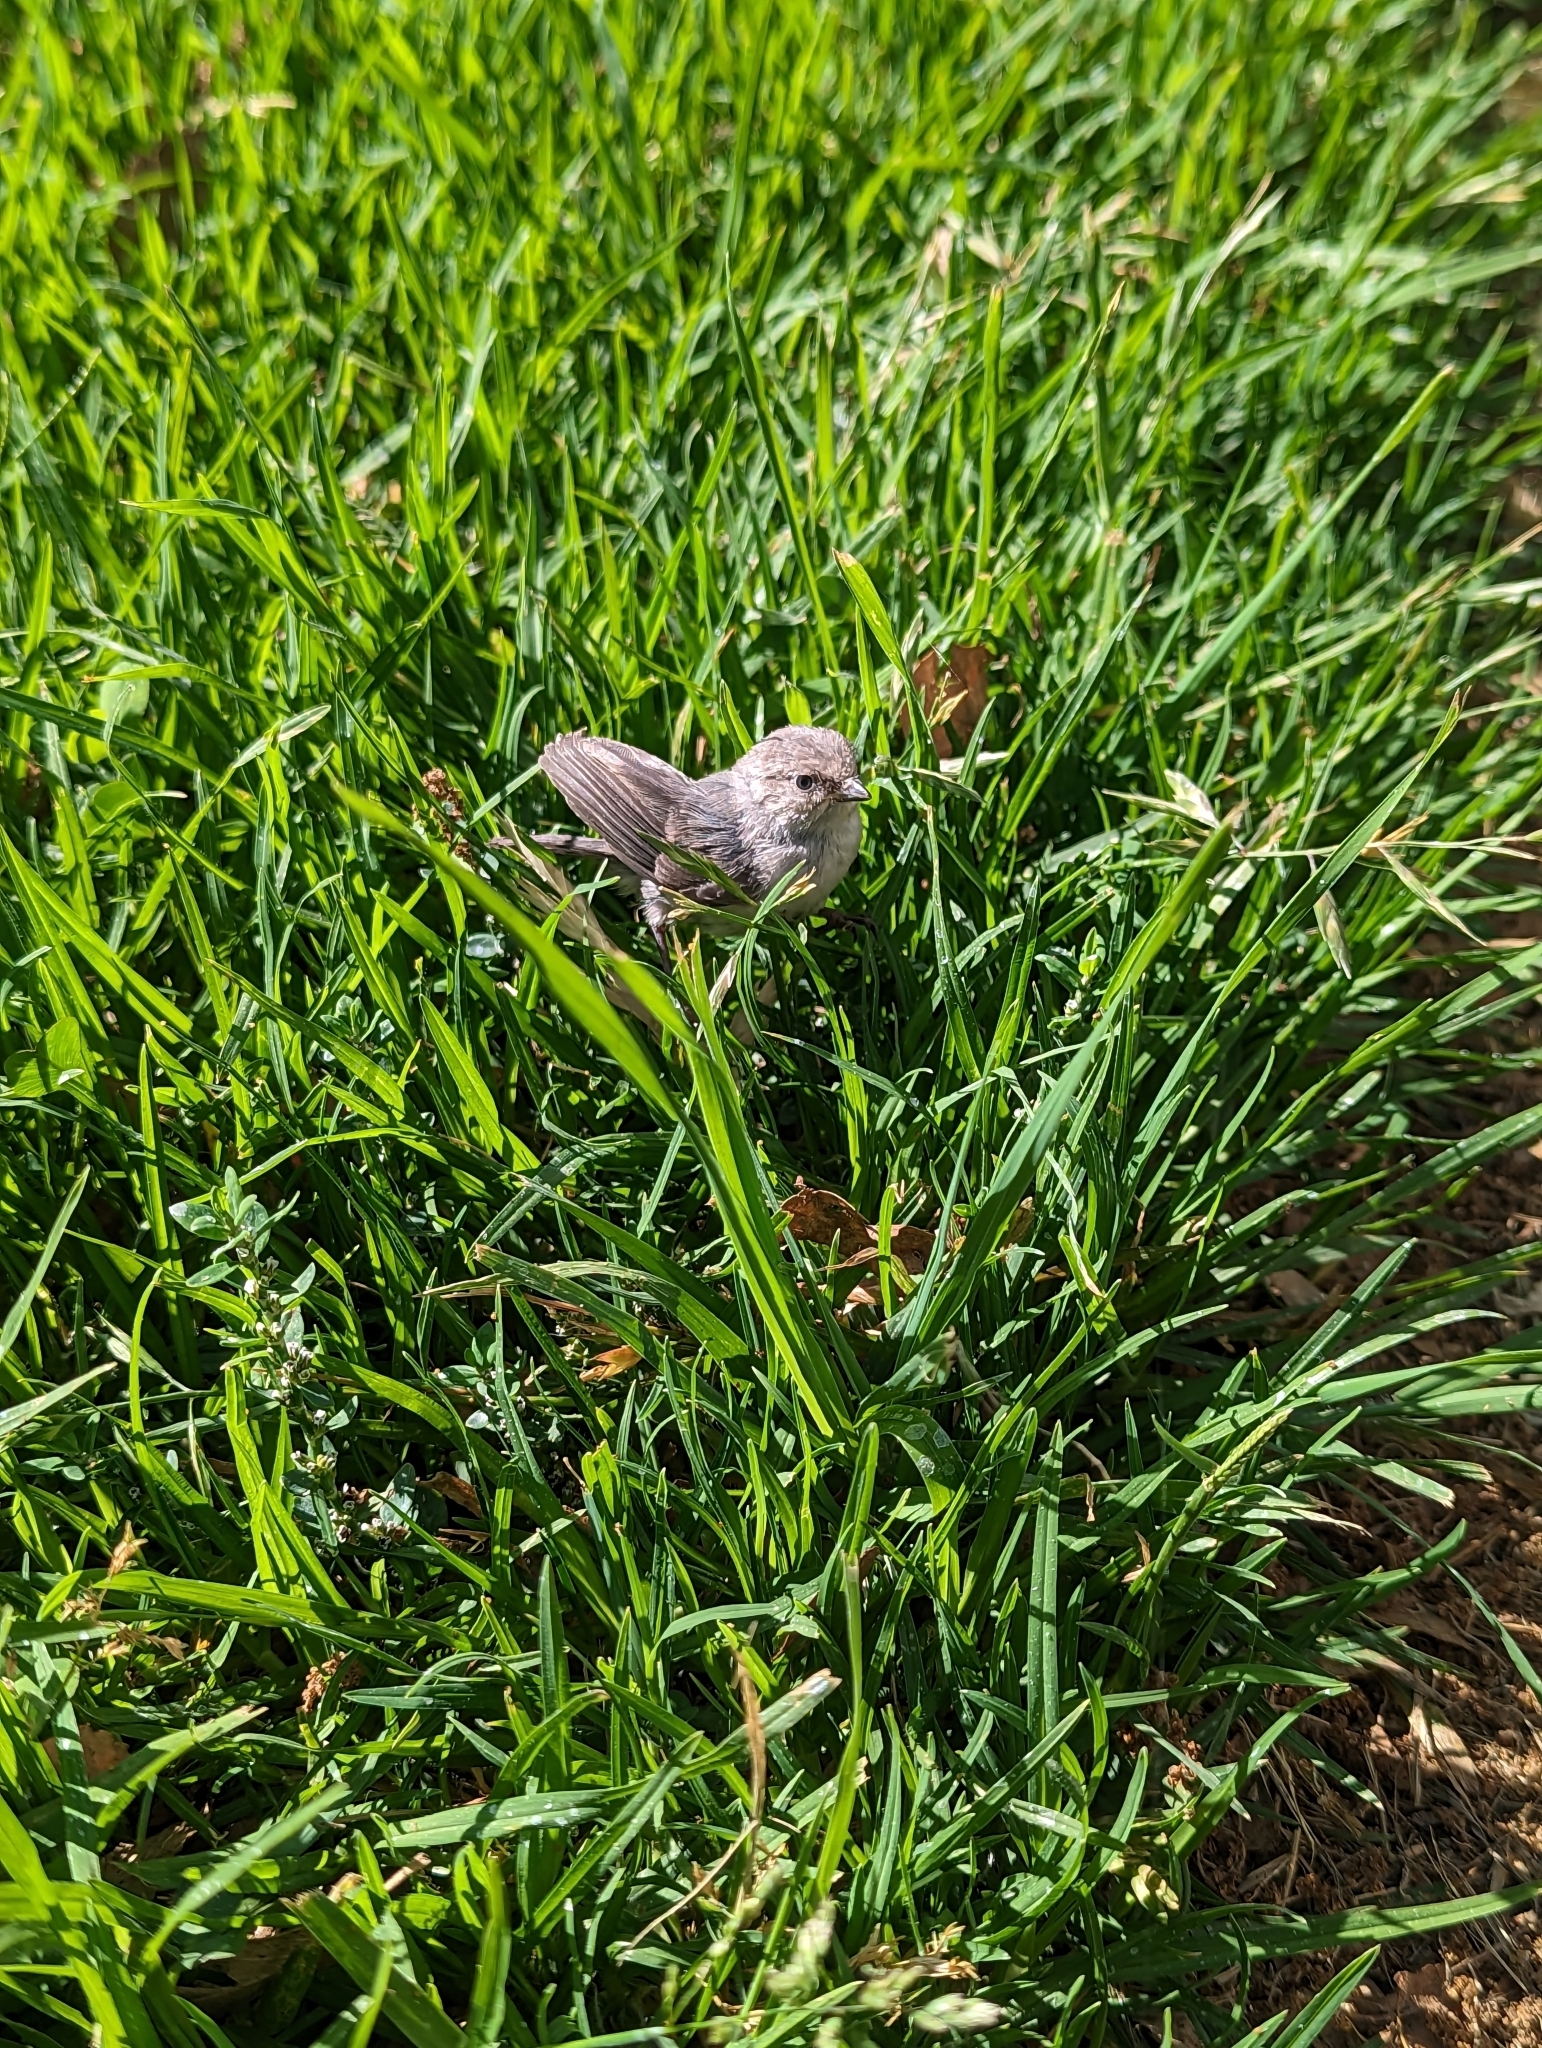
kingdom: Animalia
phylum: Chordata
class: Aves
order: Passeriformes
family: Aegithalidae
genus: Psaltriparus
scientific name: Psaltriparus minimus
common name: American bushtit
